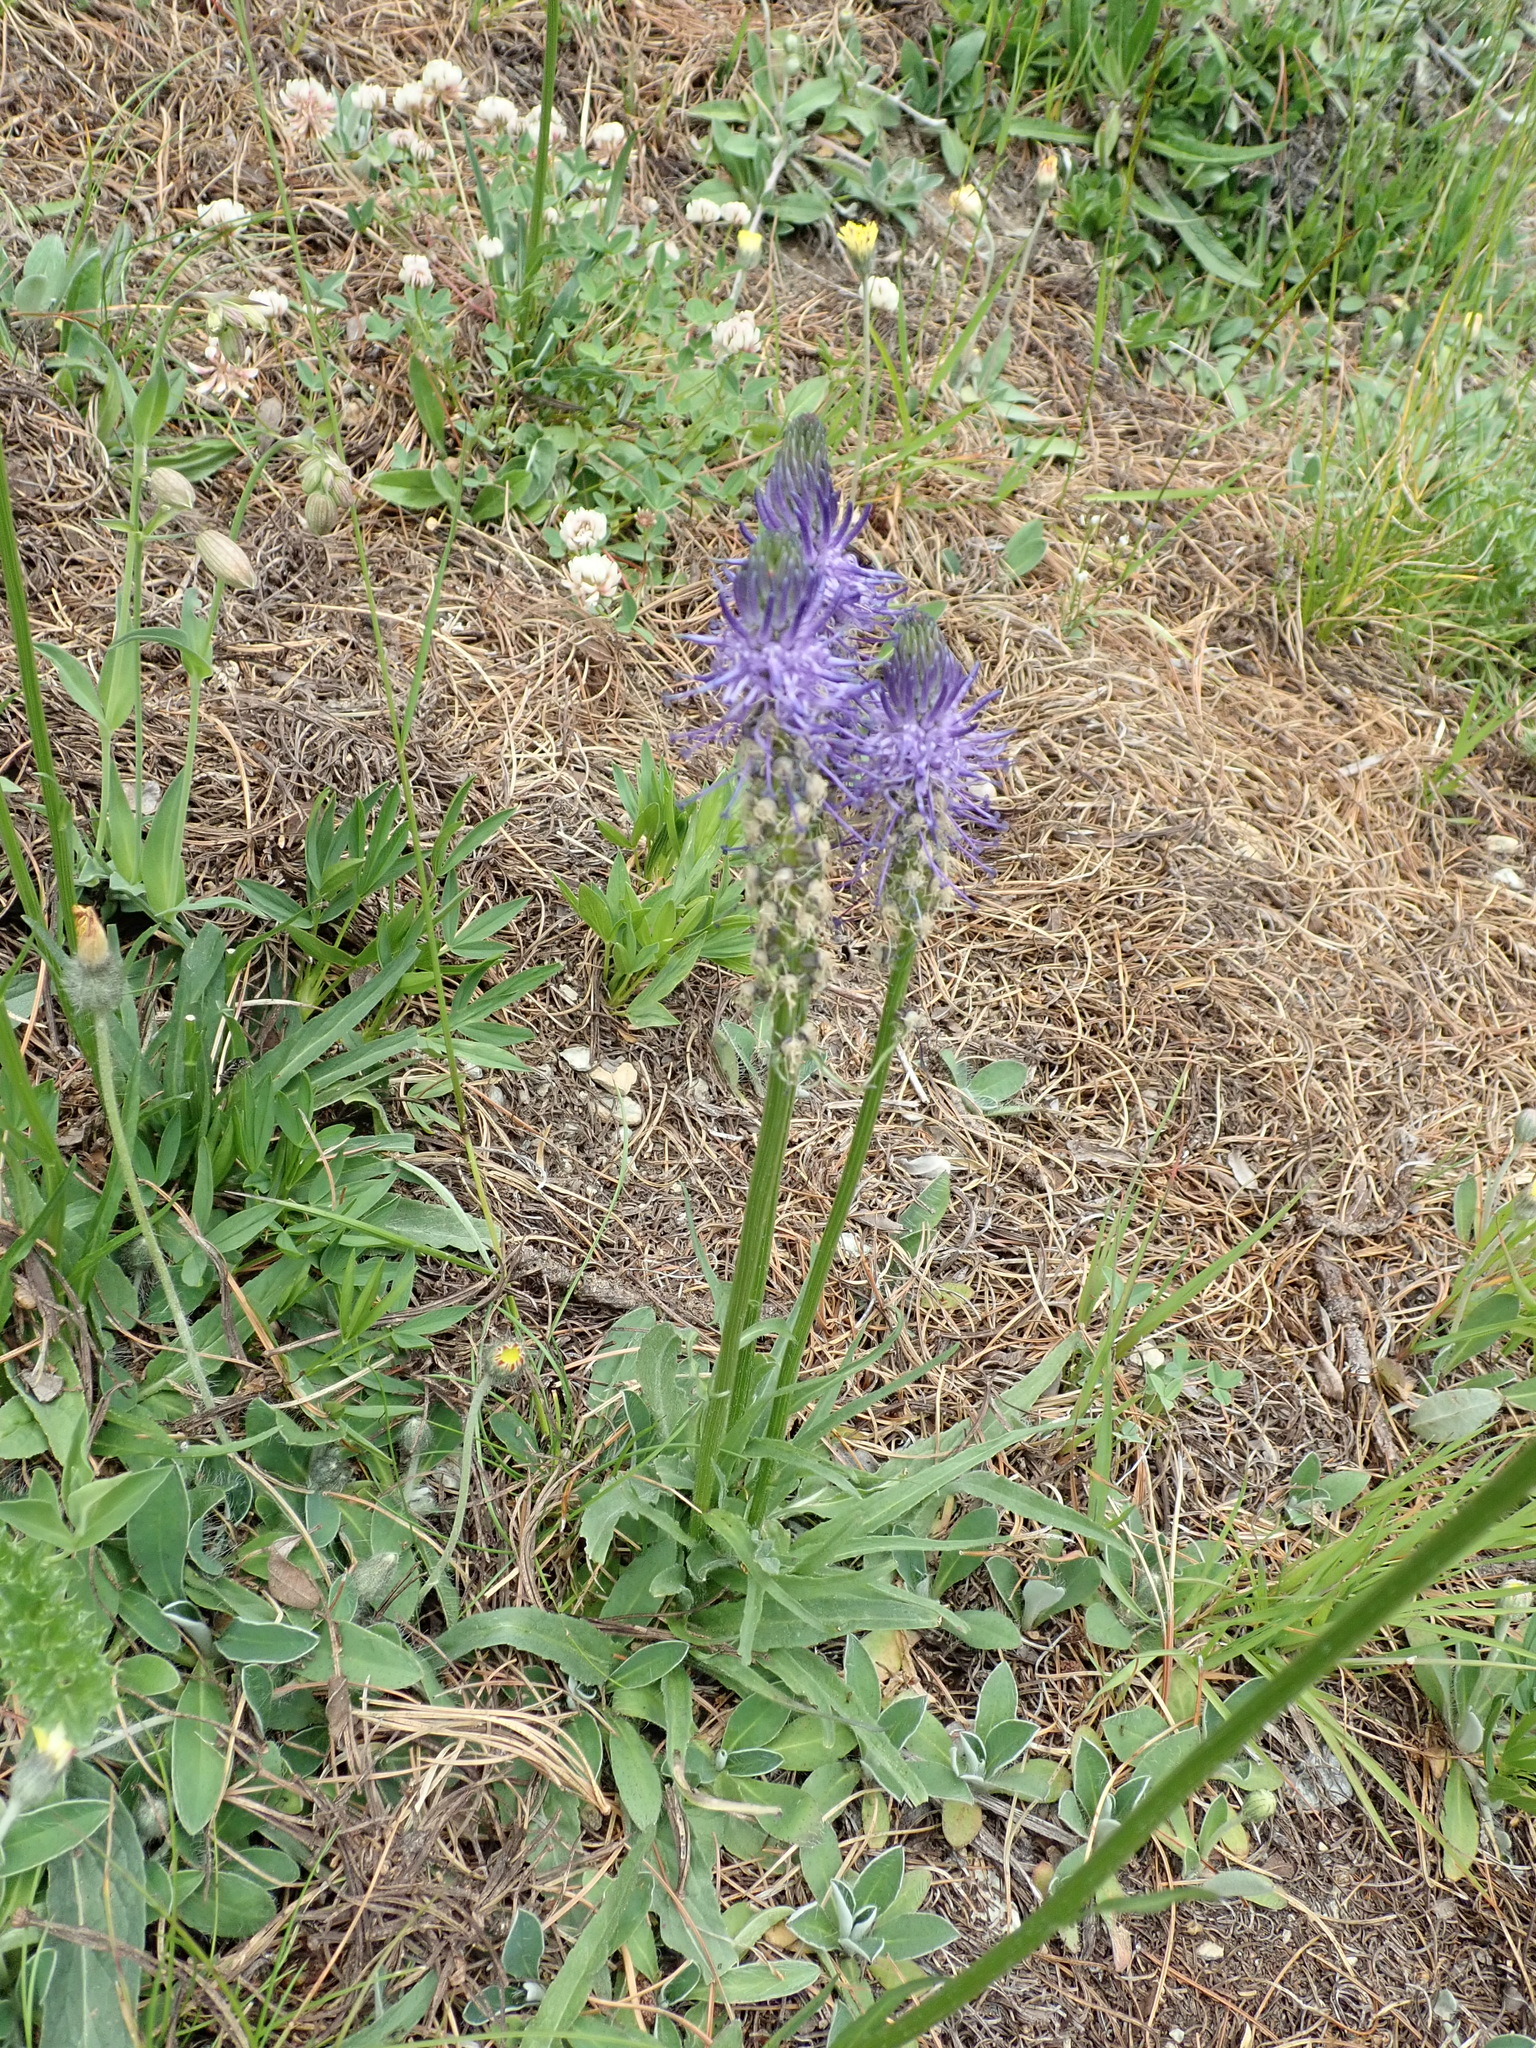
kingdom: Plantae
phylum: Tracheophyta
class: Magnoliopsida
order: Asterales
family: Campanulaceae
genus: Phyteuma
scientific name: Phyteuma betonicifolium
